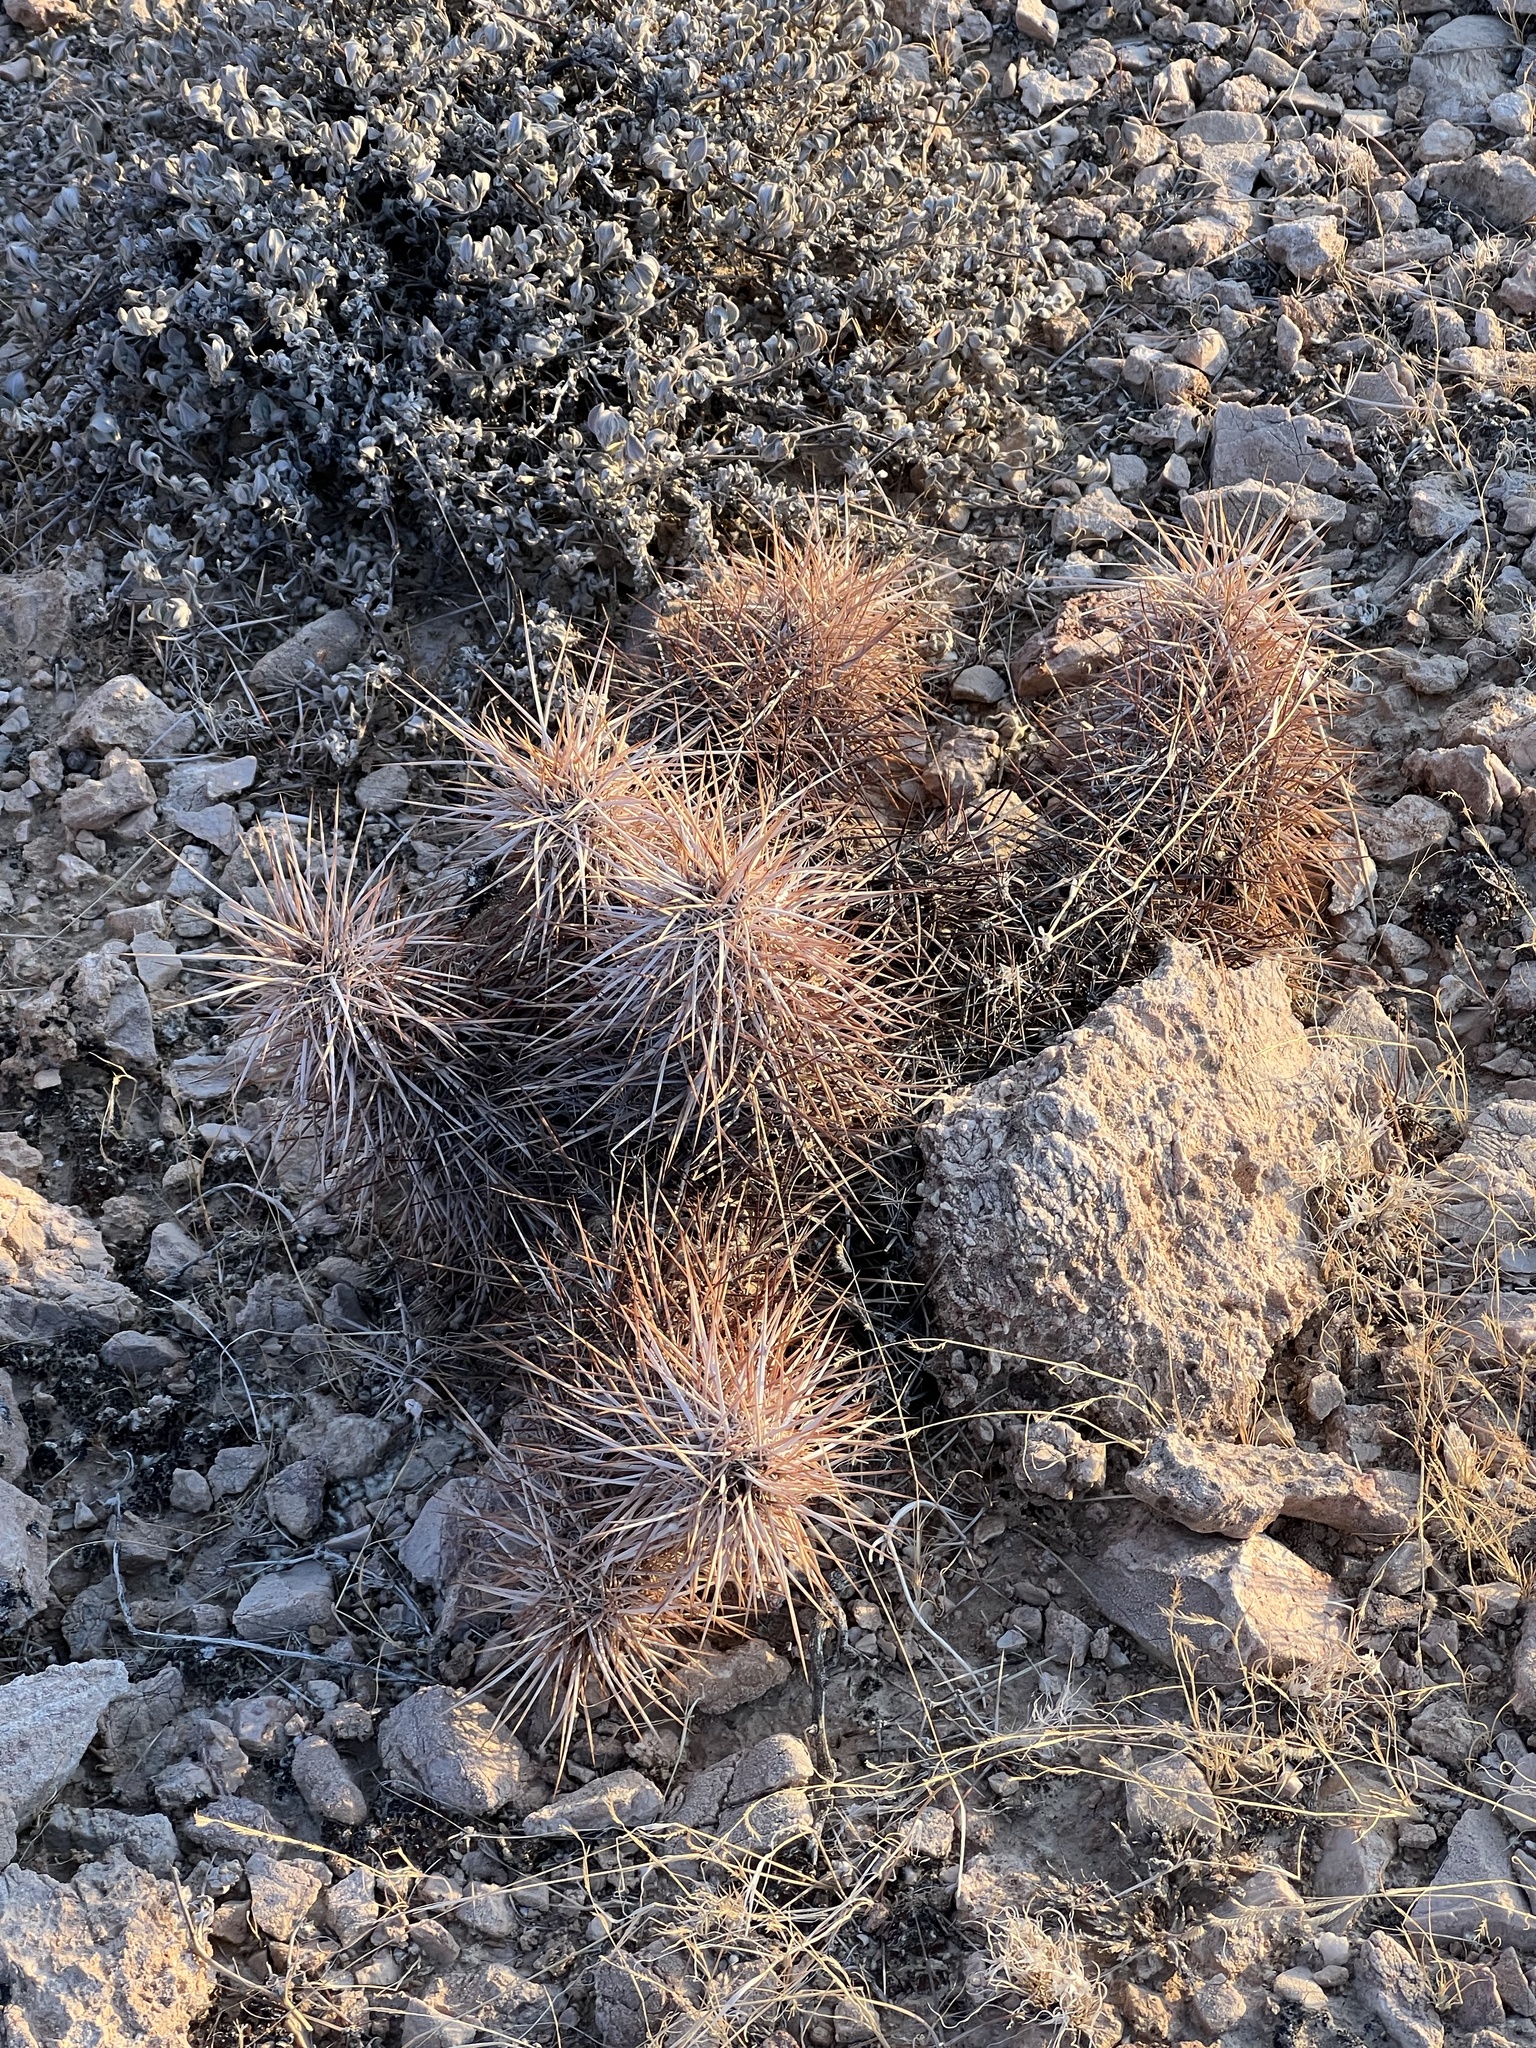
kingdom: Plantae
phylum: Tracheophyta
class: Magnoliopsida
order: Caryophyllales
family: Cactaceae
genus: Echinocereus
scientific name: Echinocereus engelmannii
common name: Engelmann's hedgehog cactus
